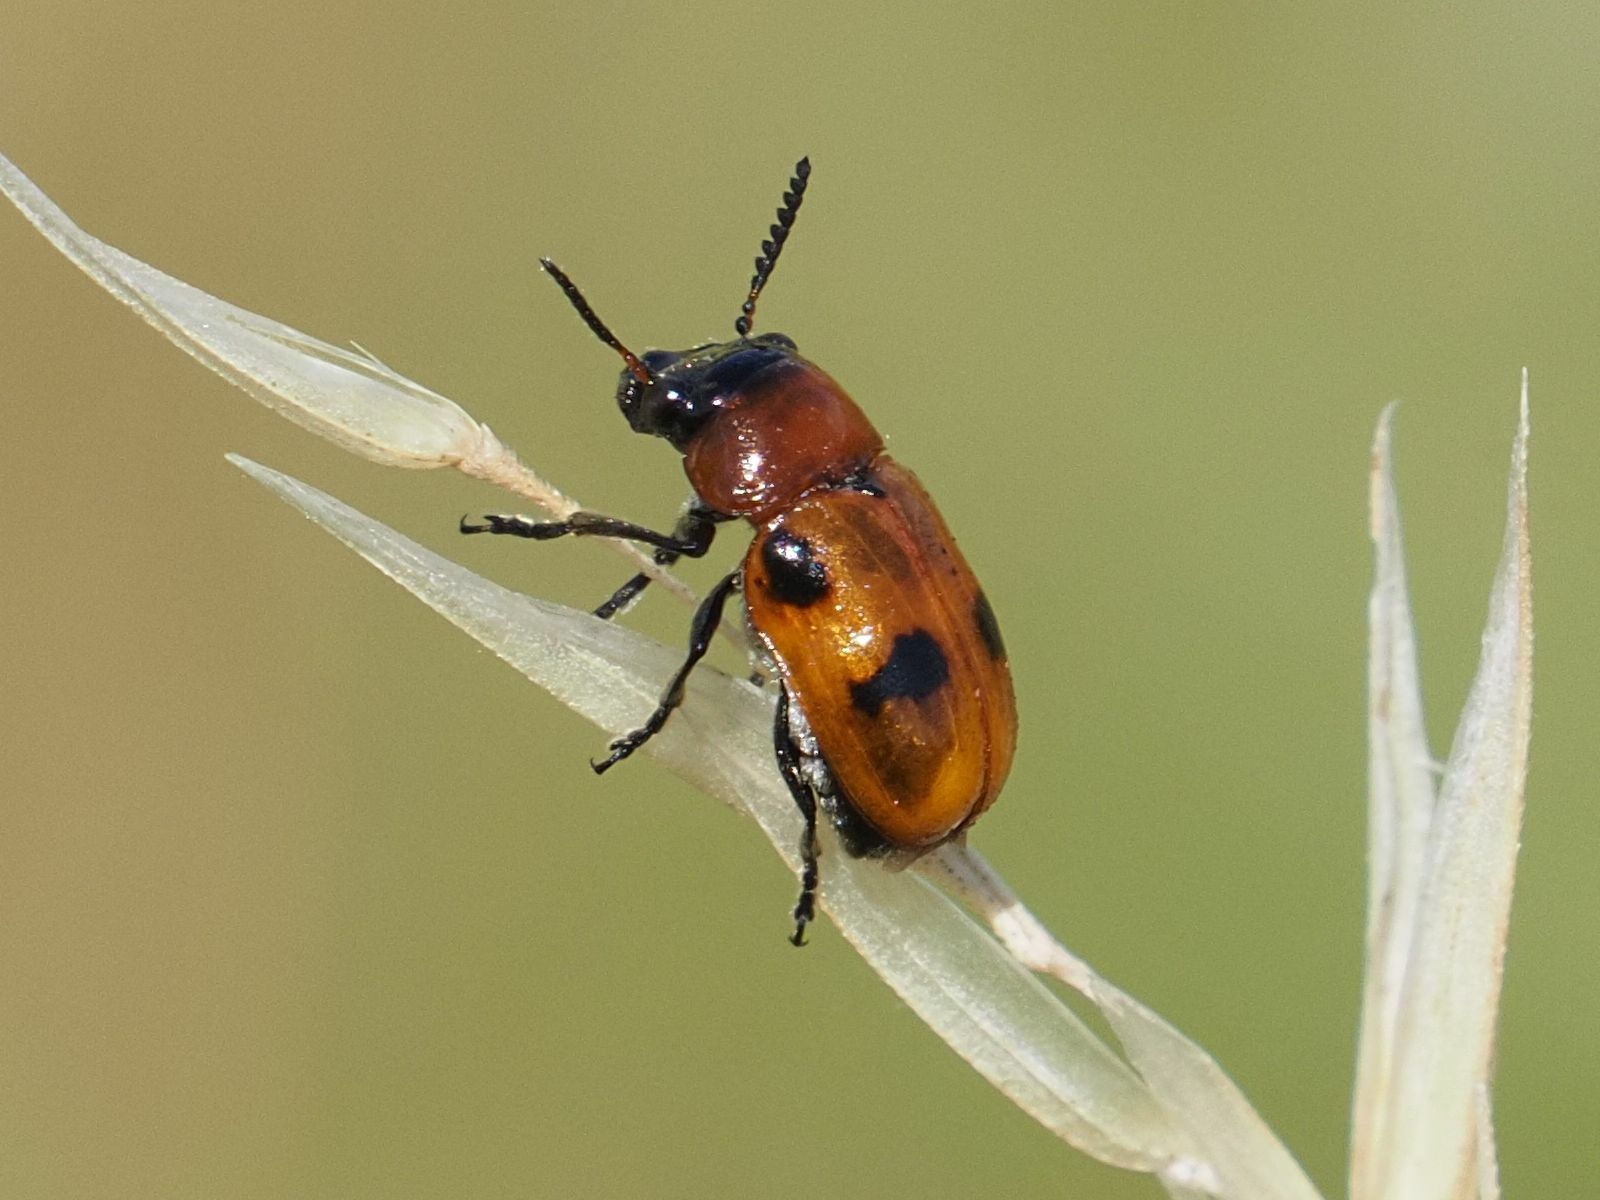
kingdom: Animalia
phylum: Arthropoda
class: Insecta
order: Coleoptera
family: Chrysomelidae
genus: Coptocephala
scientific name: Coptocephala rubicunda
